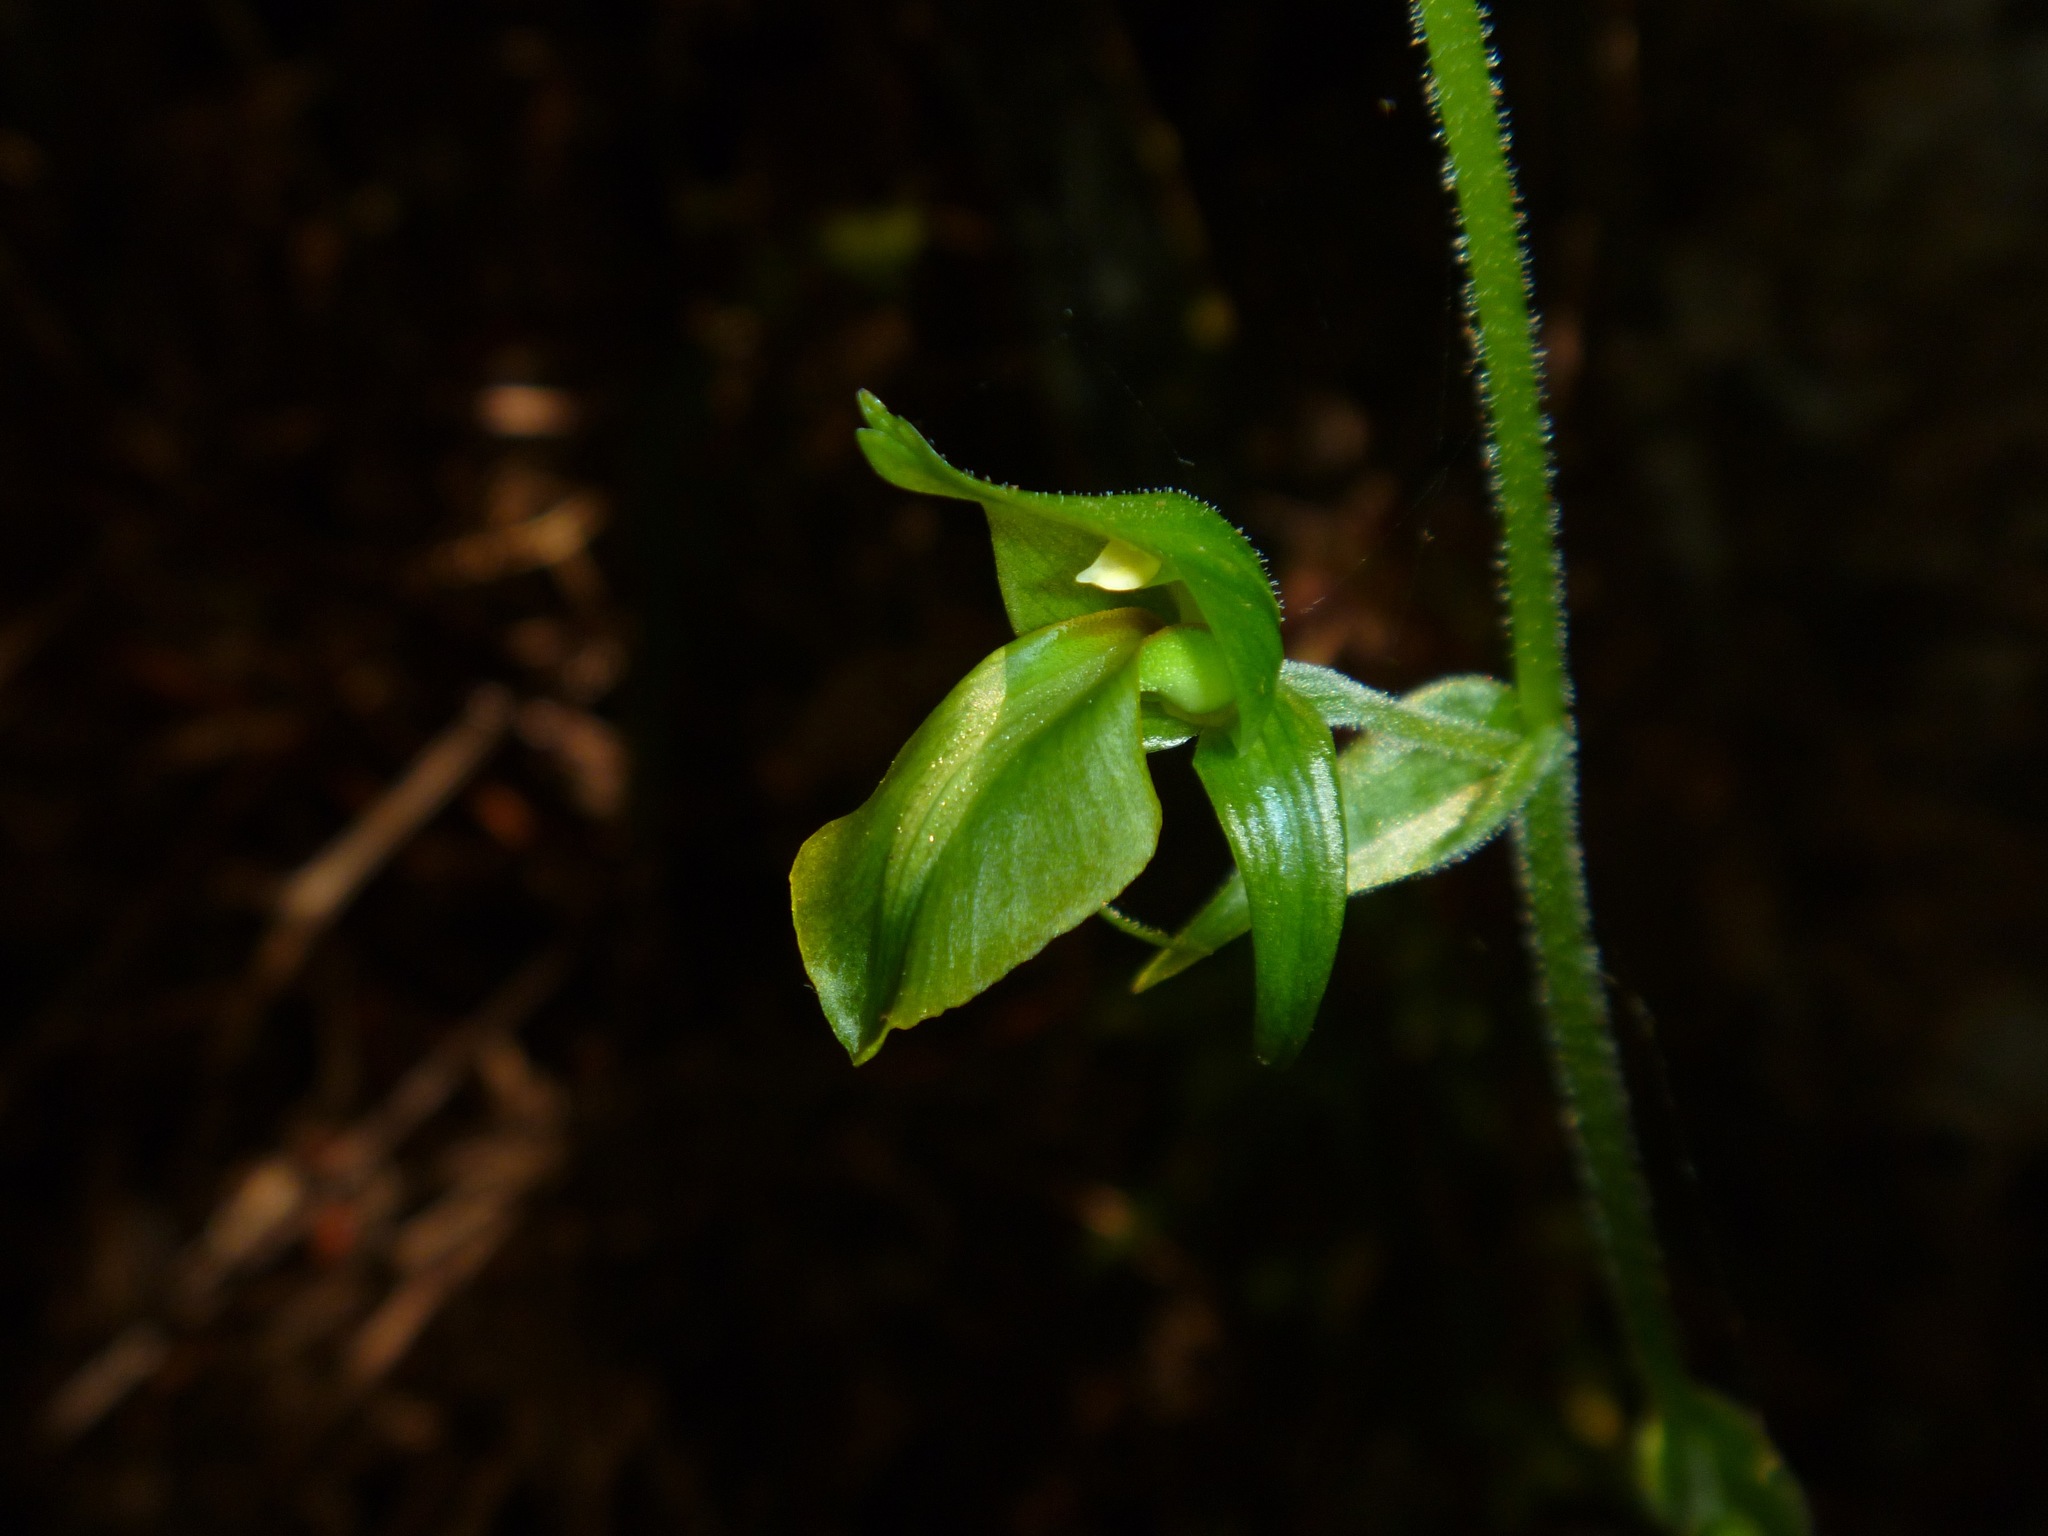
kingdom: Plantae
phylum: Tracheophyta
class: Liliopsida
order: Asparagales
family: Orchidaceae
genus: Achlydosa
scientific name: Achlydosa glandulosa
